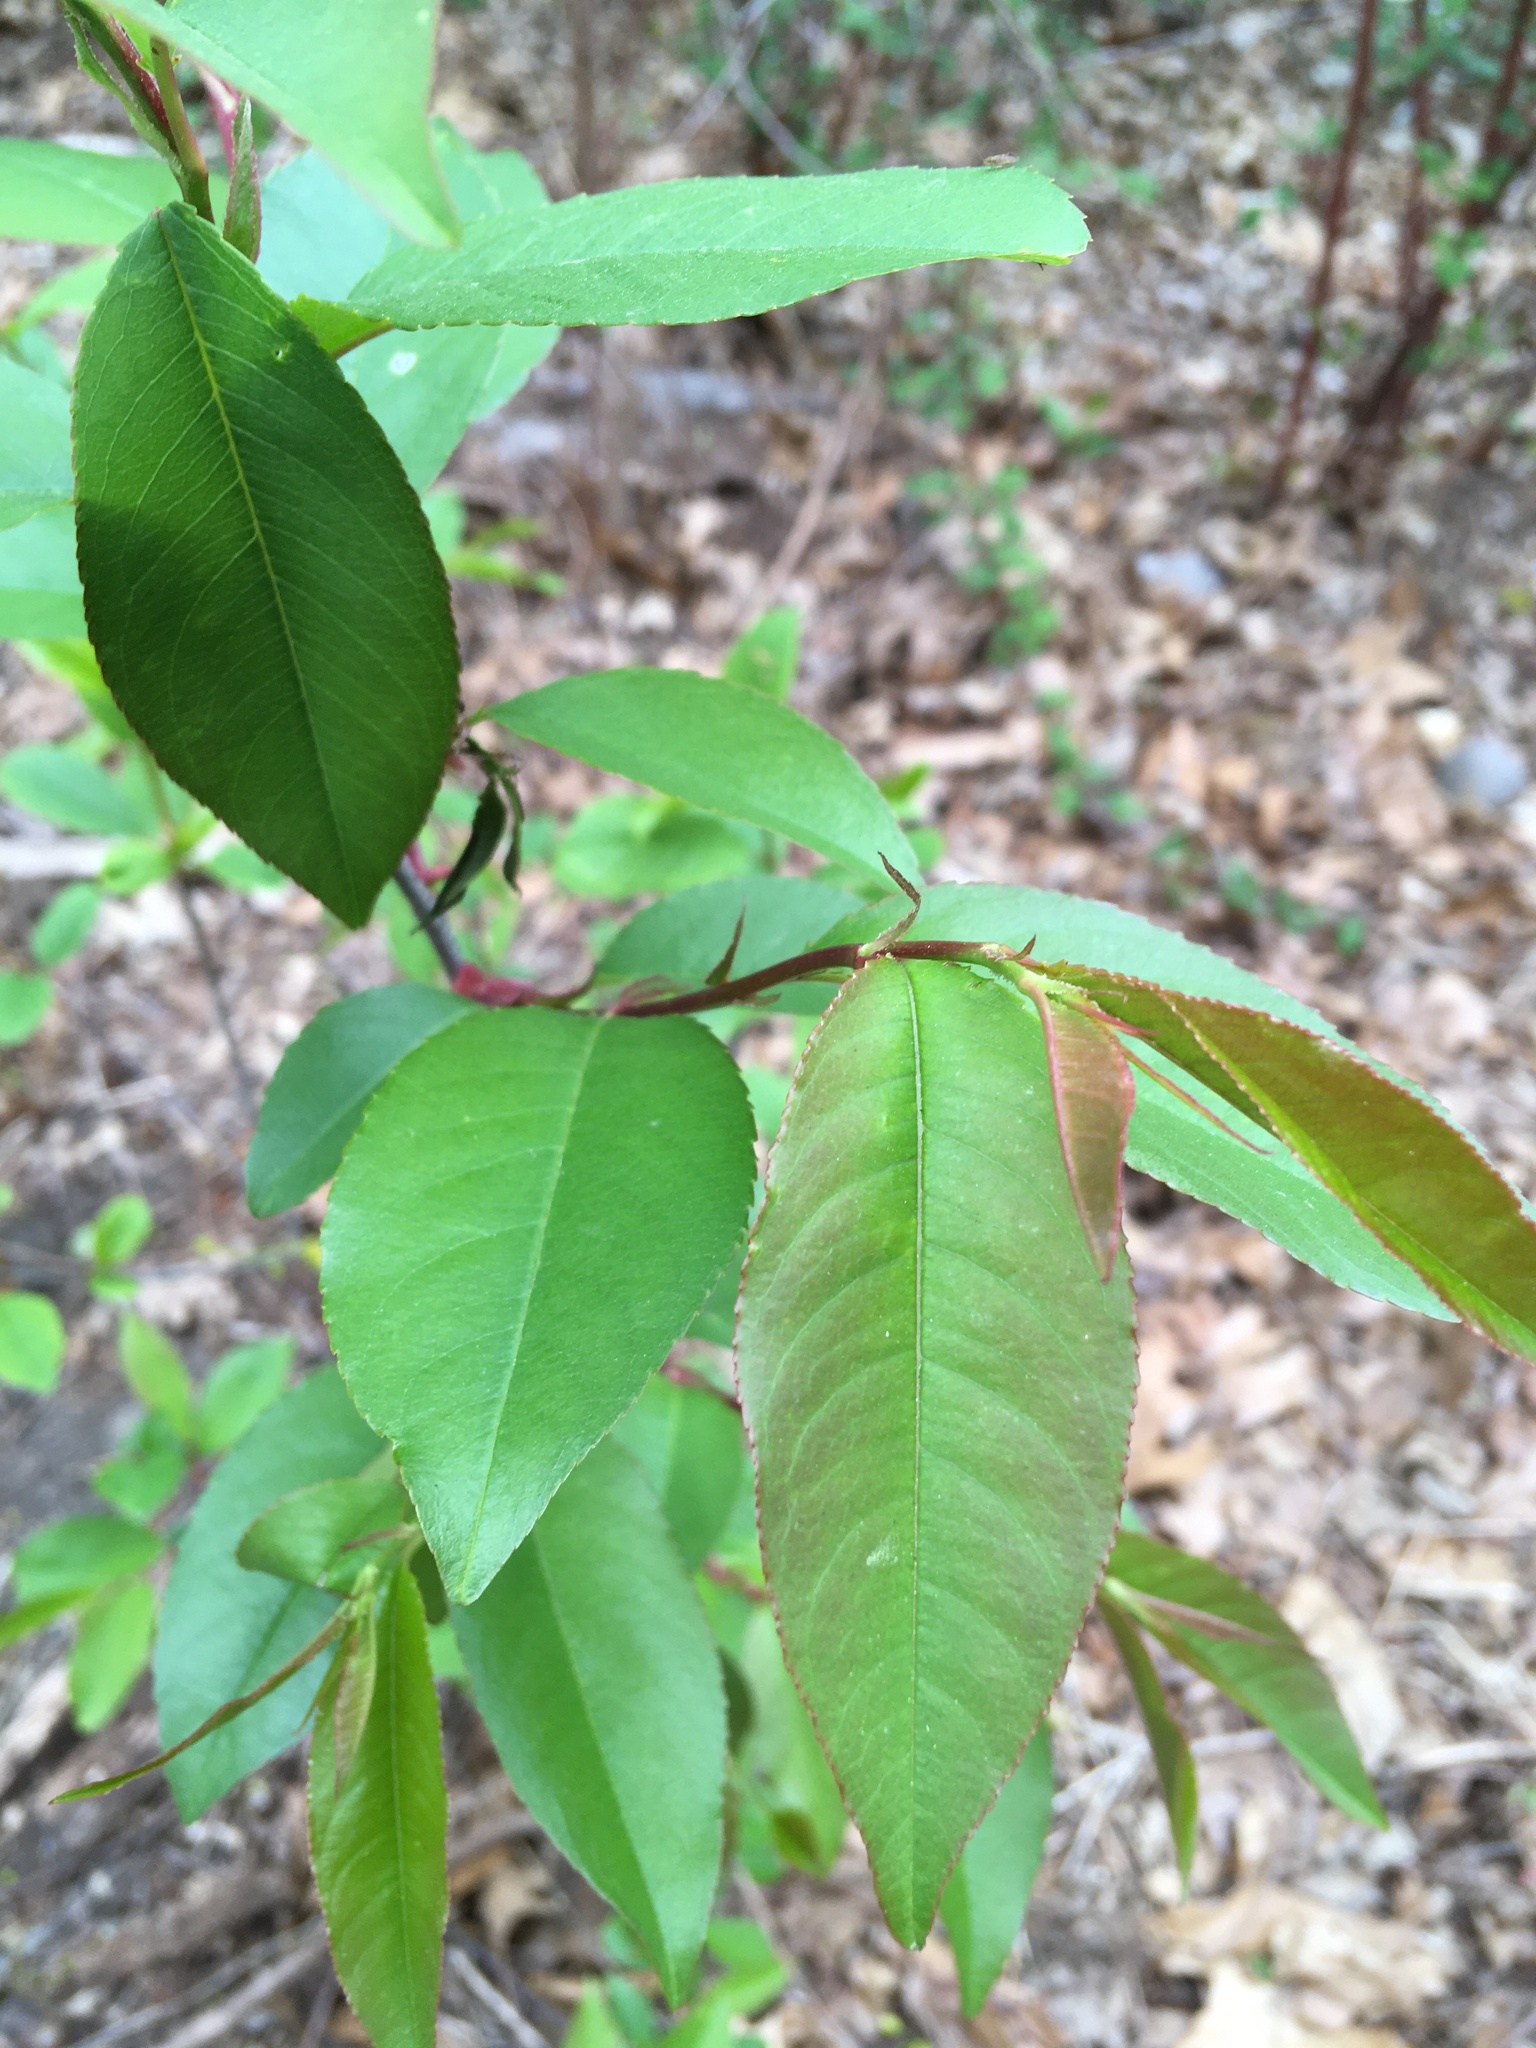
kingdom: Plantae
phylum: Tracheophyta
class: Magnoliopsida
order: Rosales
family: Rosaceae
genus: Prunus
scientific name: Prunus serotina
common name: Black cherry
